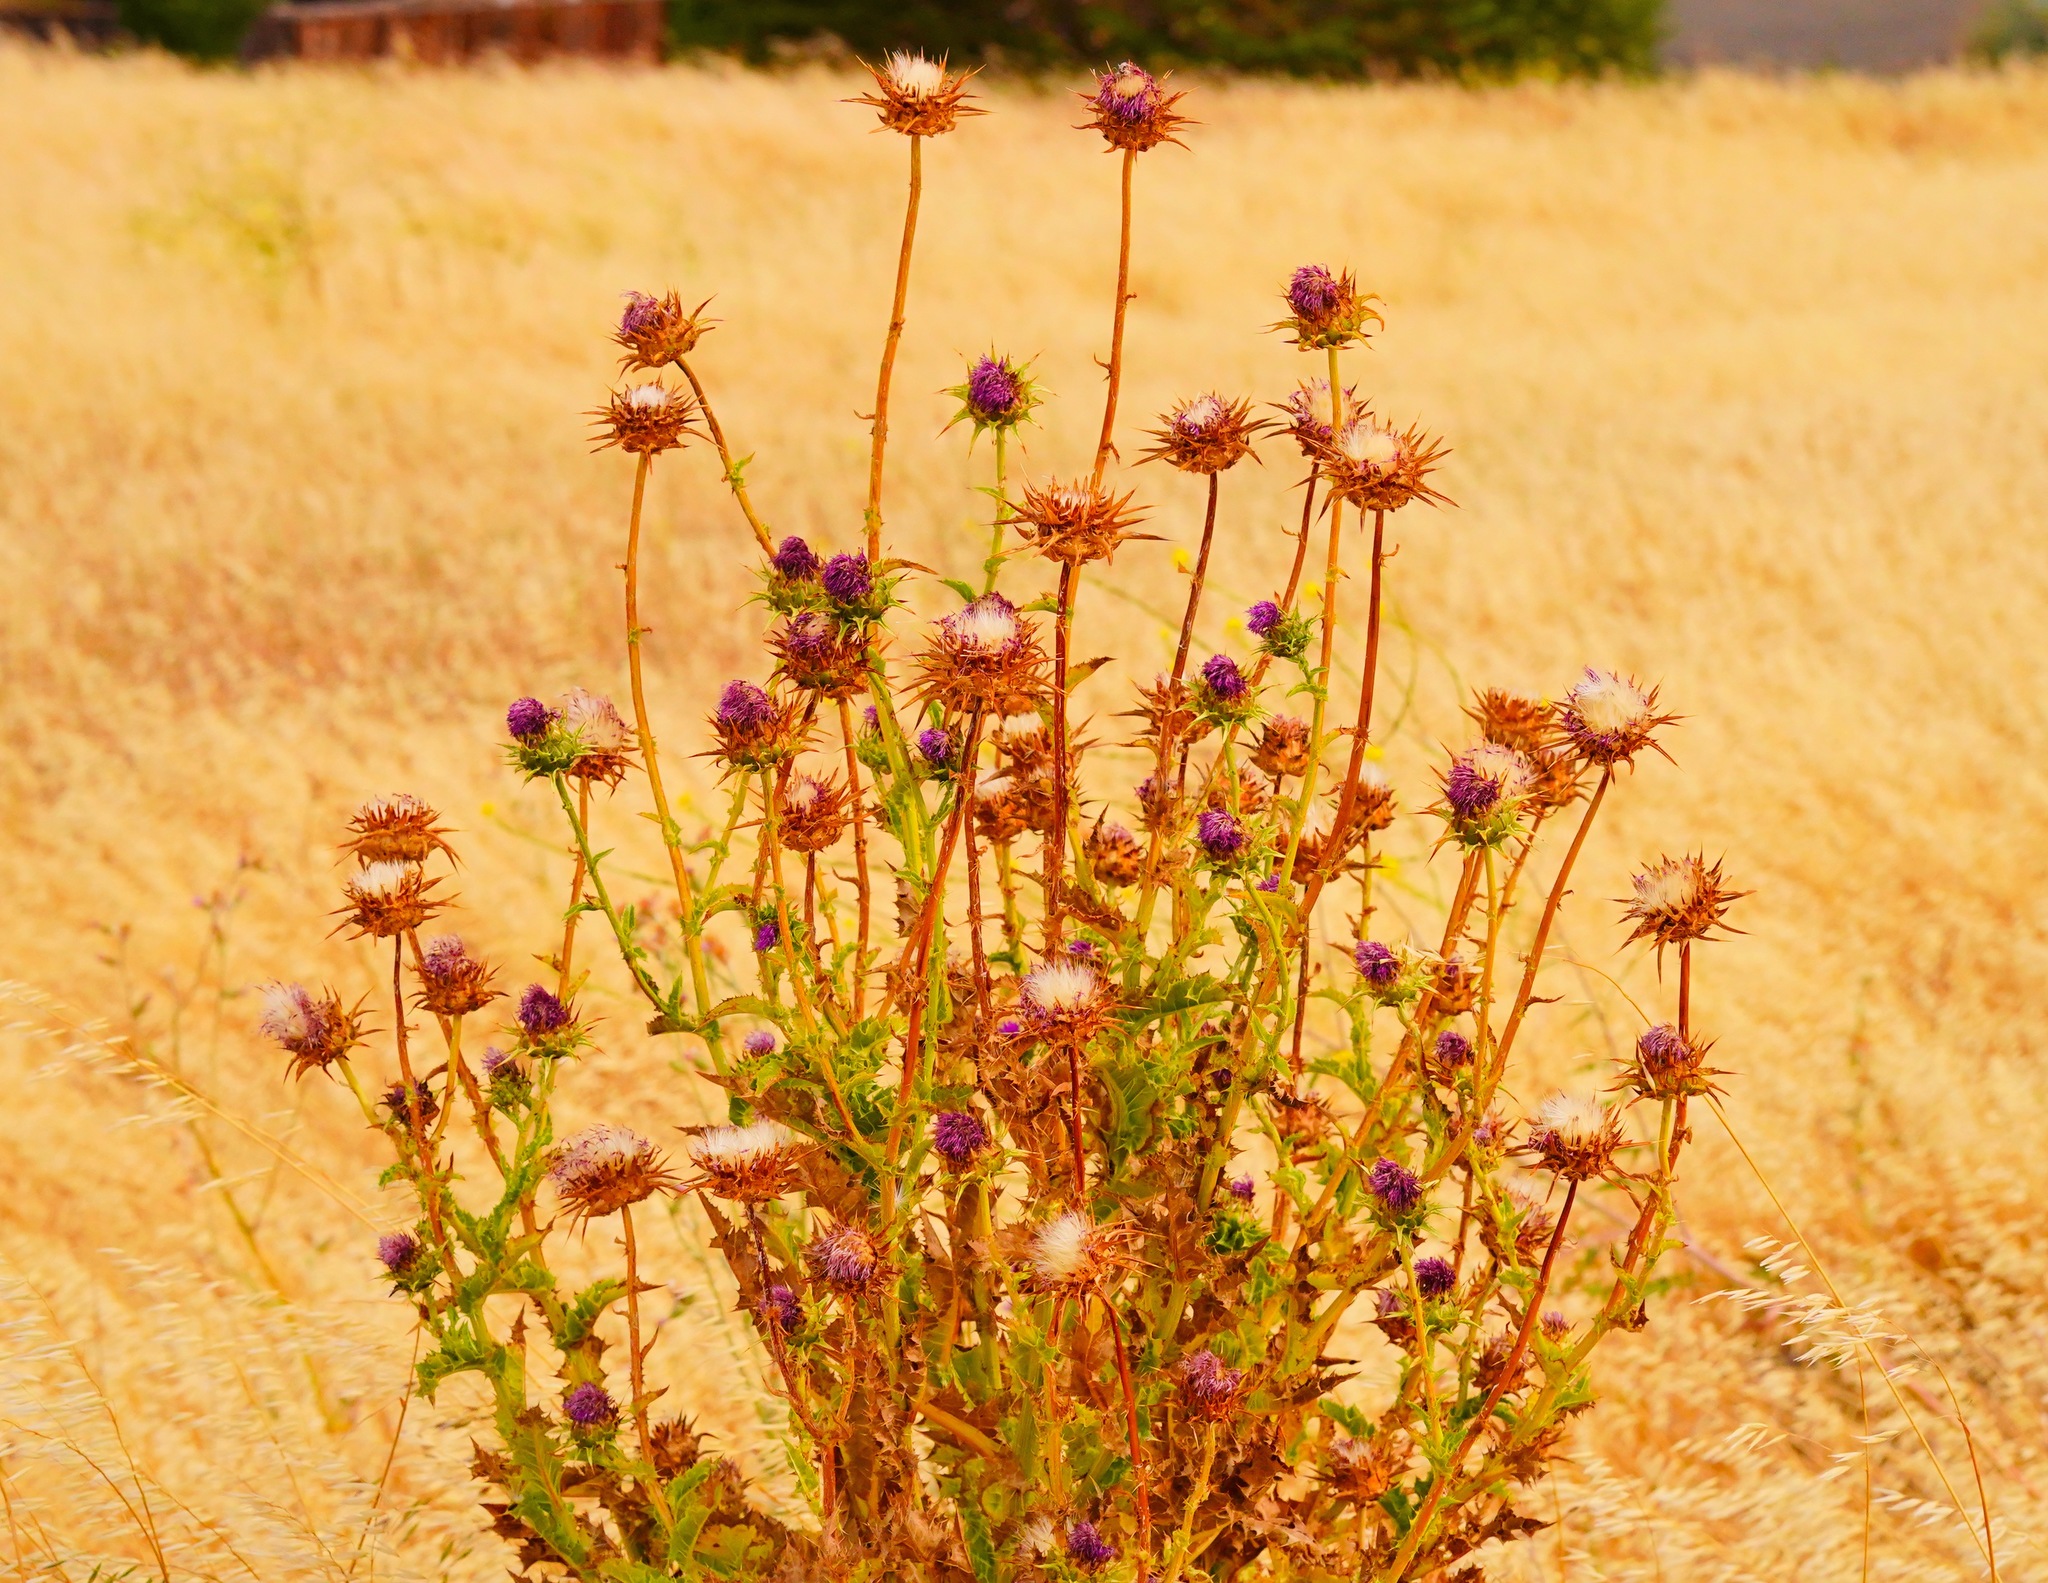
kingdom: Plantae
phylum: Tracheophyta
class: Magnoliopsida
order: Asterales
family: Asteraceae
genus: Silybum
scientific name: Silybum marianum
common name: Milk thistle
